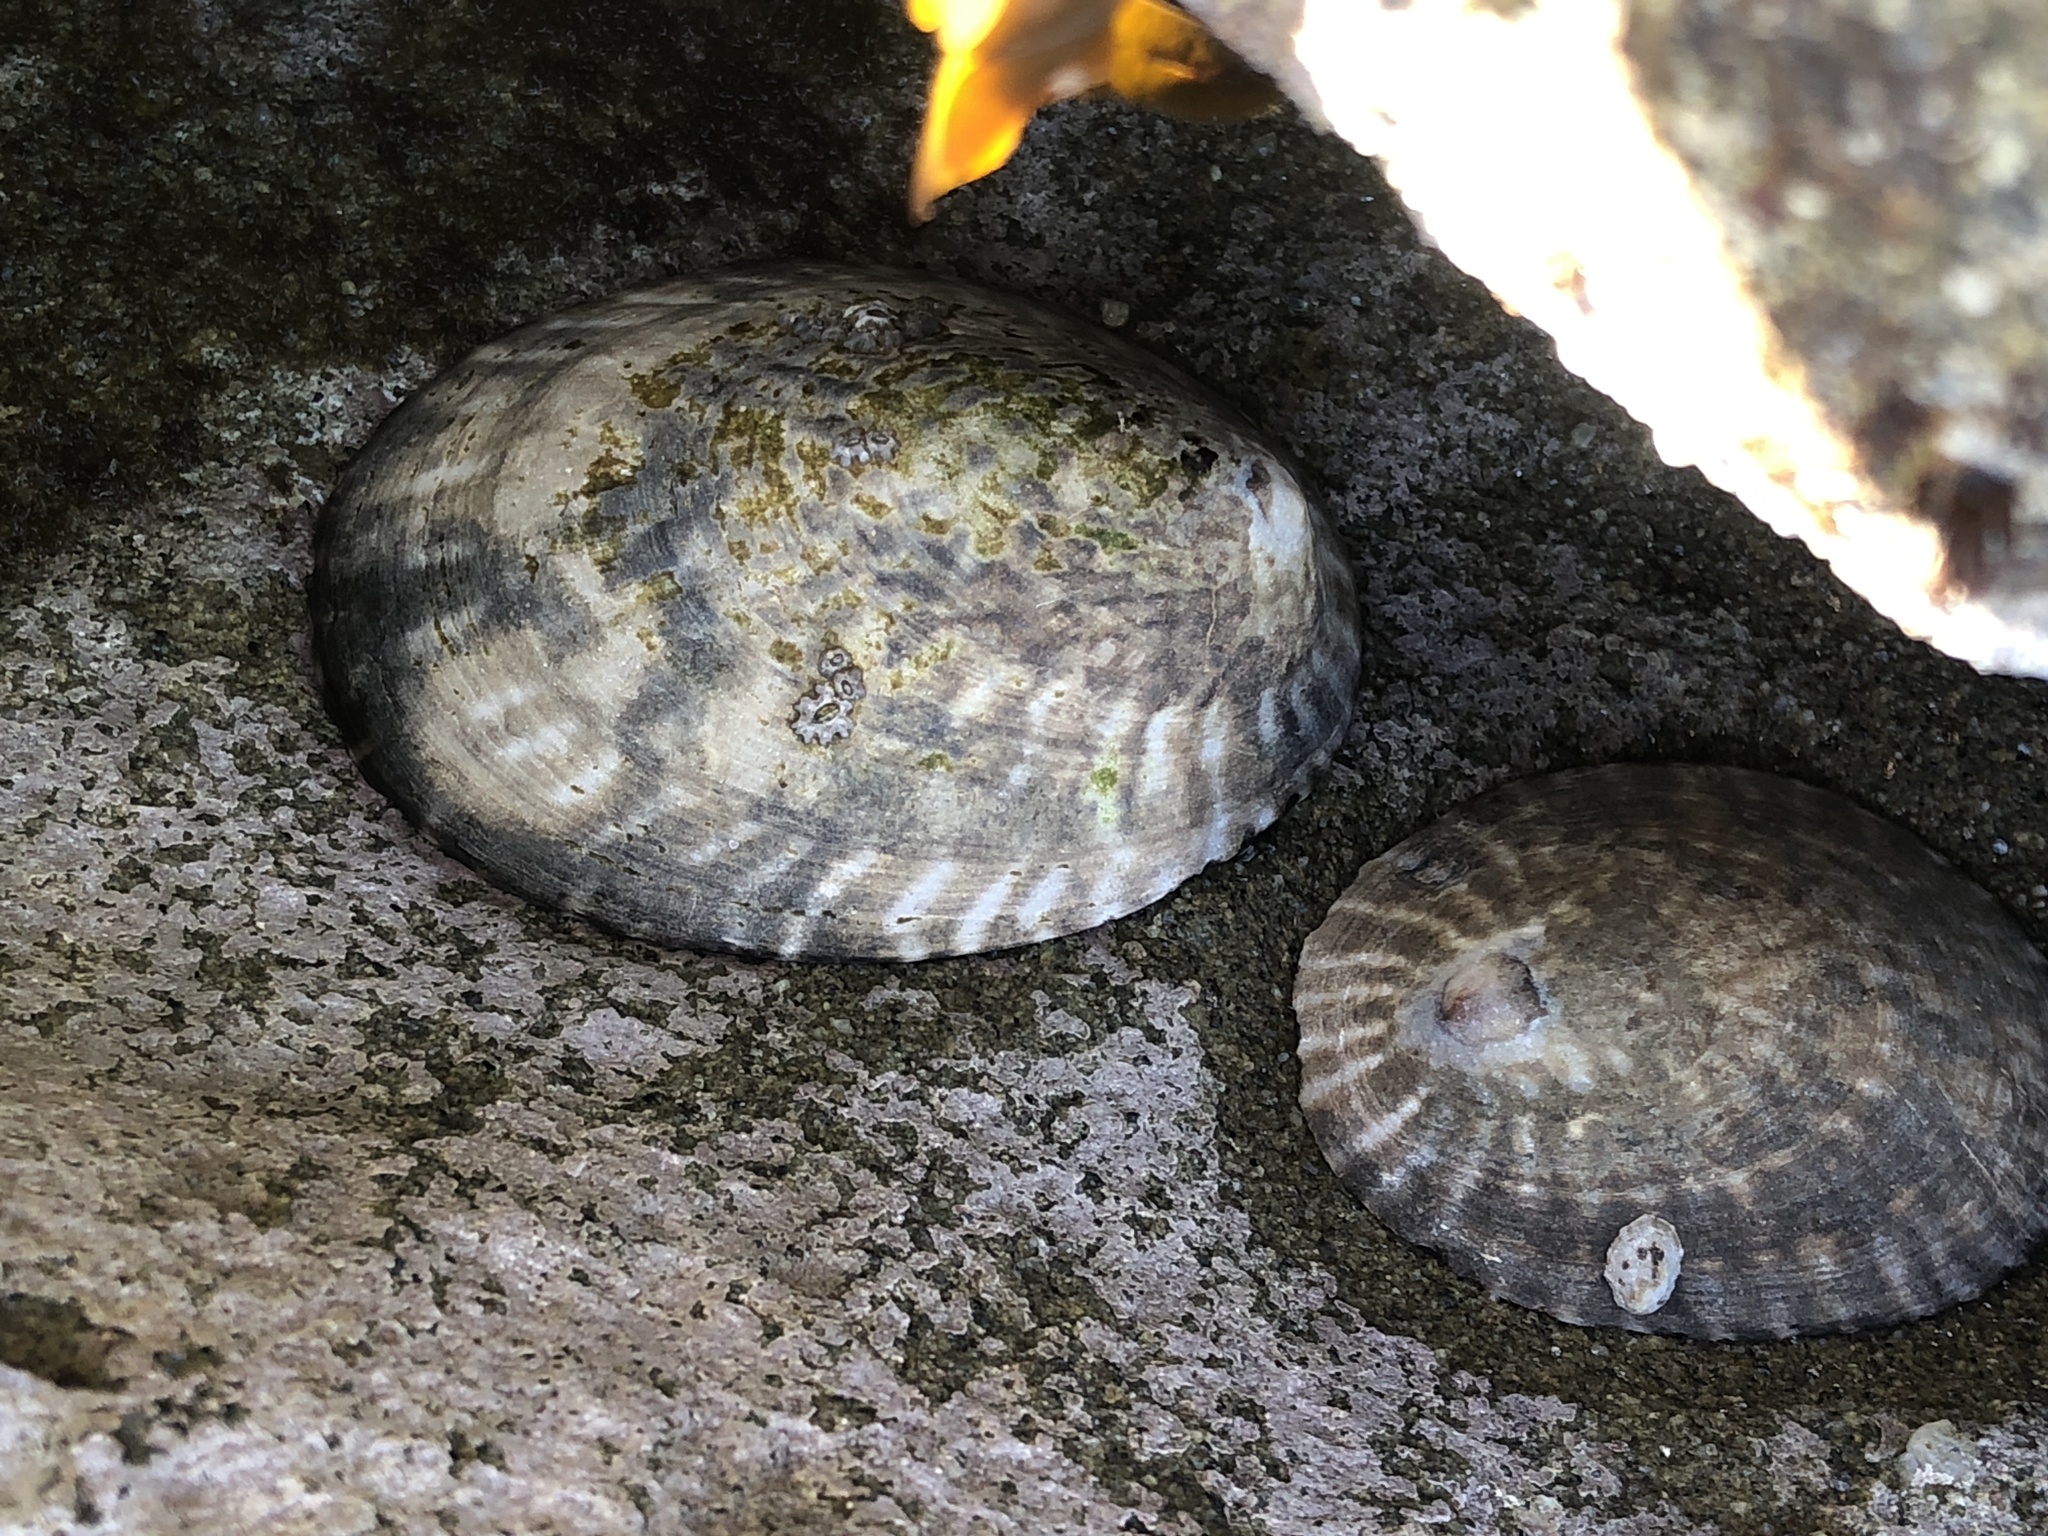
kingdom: Animalia
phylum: Mollusca
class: Gastropoda
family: Lottiidae
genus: Lottia
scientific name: Lottia gigantea
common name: Owl limpet
